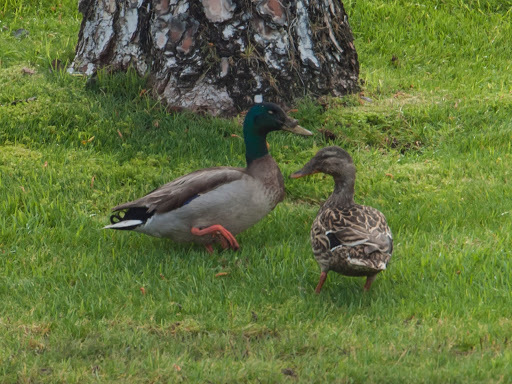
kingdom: Animalia
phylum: Chordata
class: Aves
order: Anseriformes
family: Anatidae
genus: Anas
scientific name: Anas platyrhynchos
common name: Mallard
